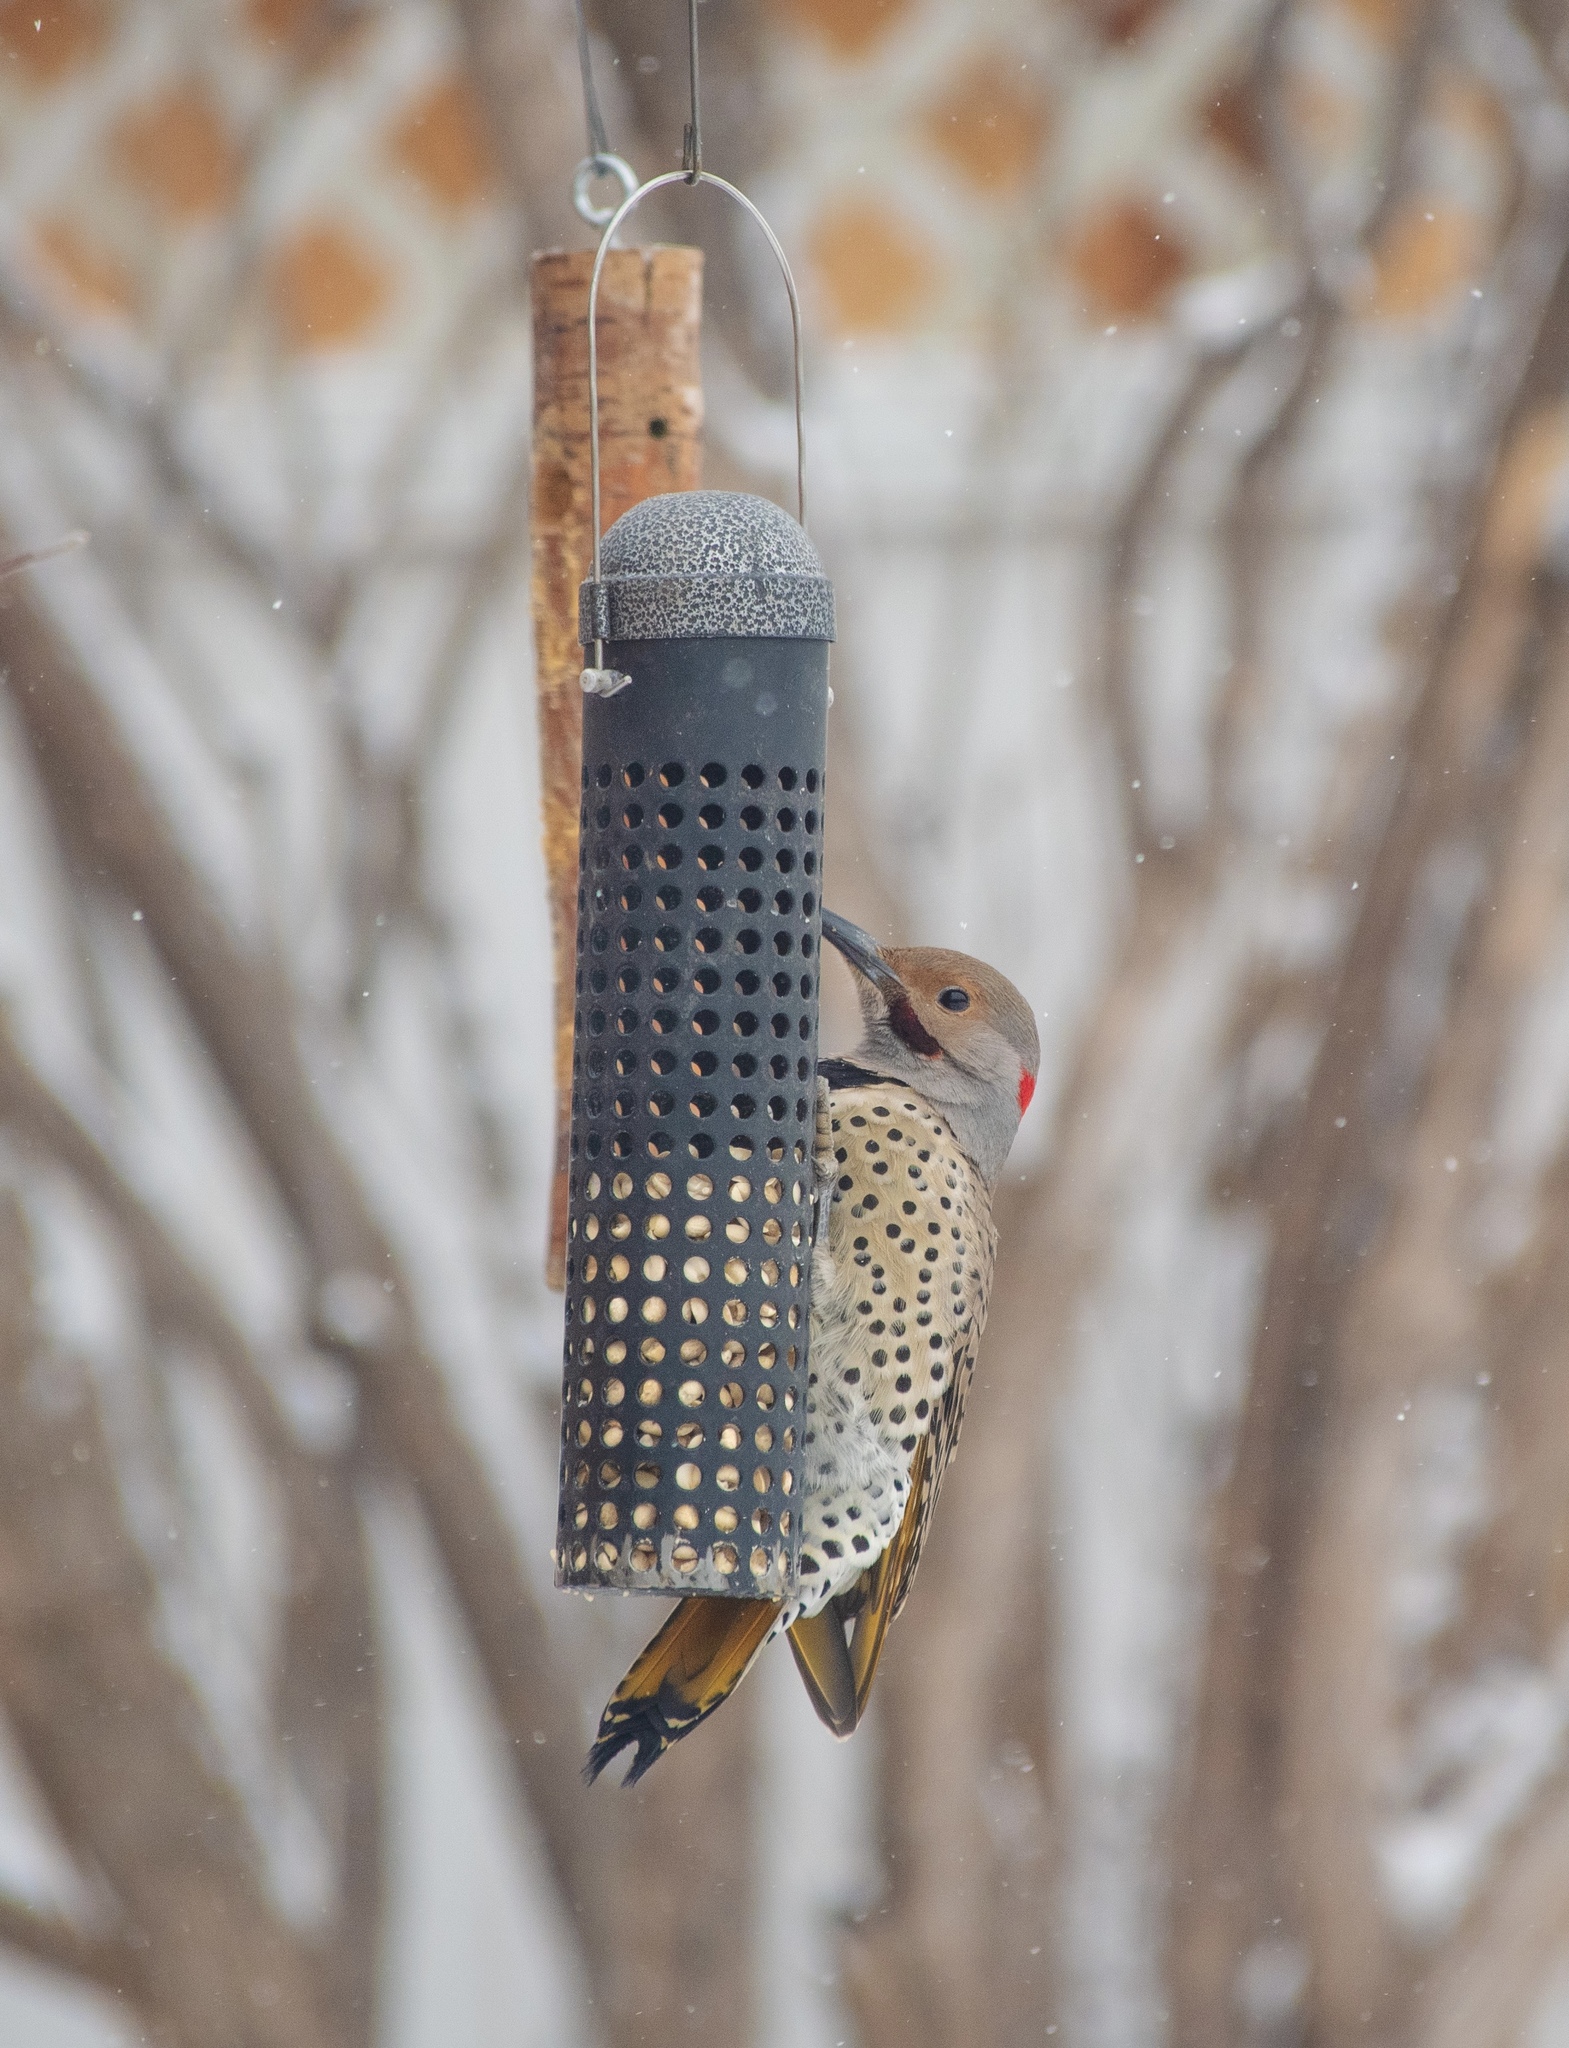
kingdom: Animalia
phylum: Chordata
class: Aves
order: Piciformes
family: Picidae
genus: Colaptes
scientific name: Colaptes
